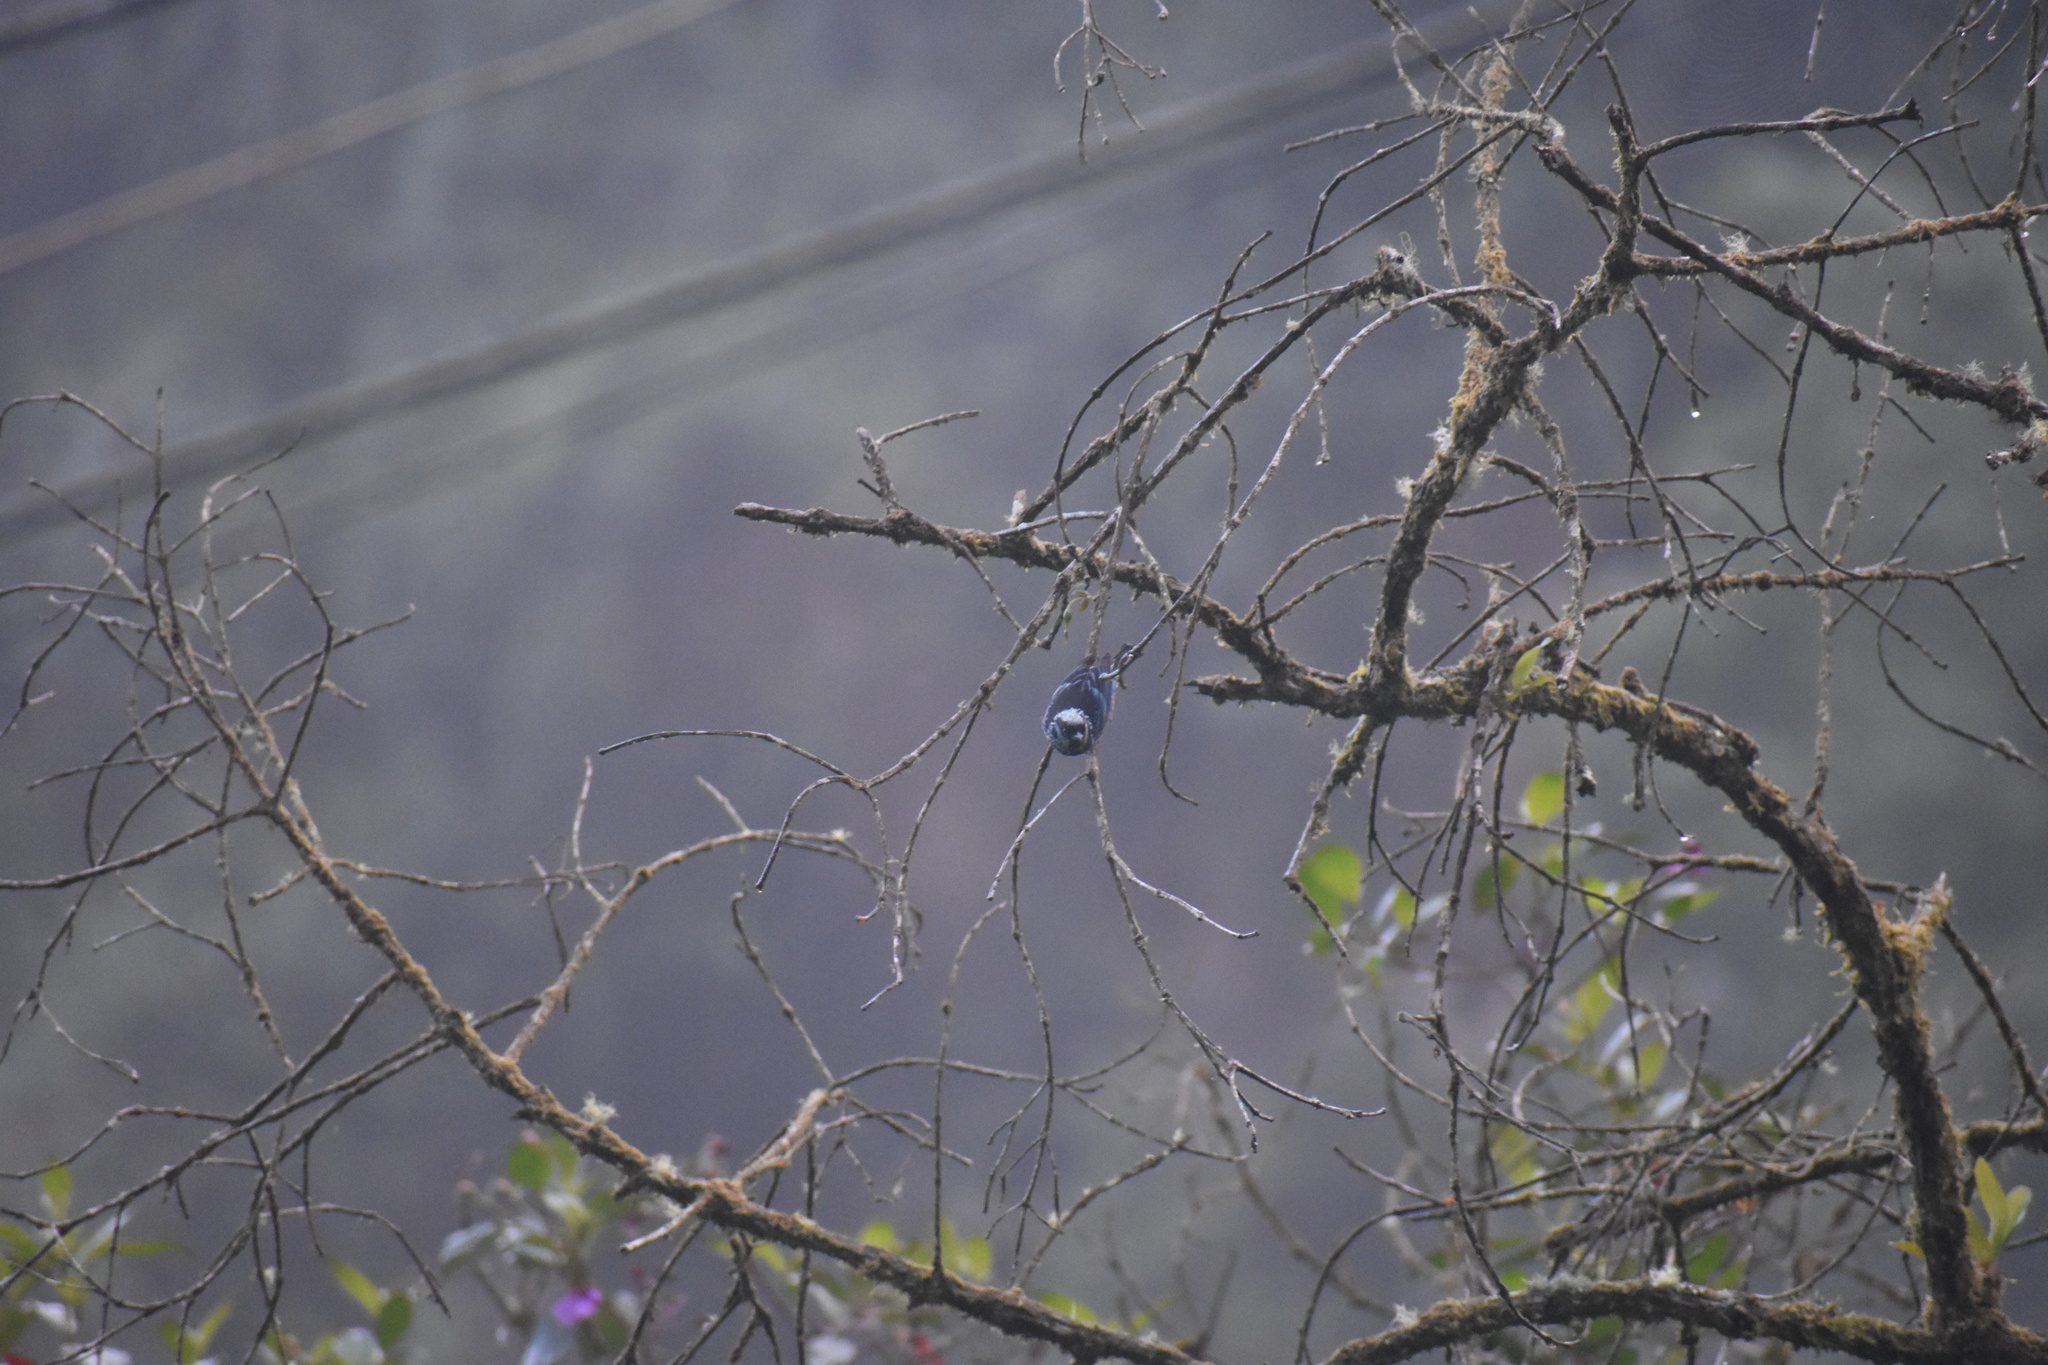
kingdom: Animalia
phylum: Chordata
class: Aves
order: Passeriformes
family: Thraupidae
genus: Tangara
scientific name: Tangara nigroviridis
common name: Beryl-spangled tanager
